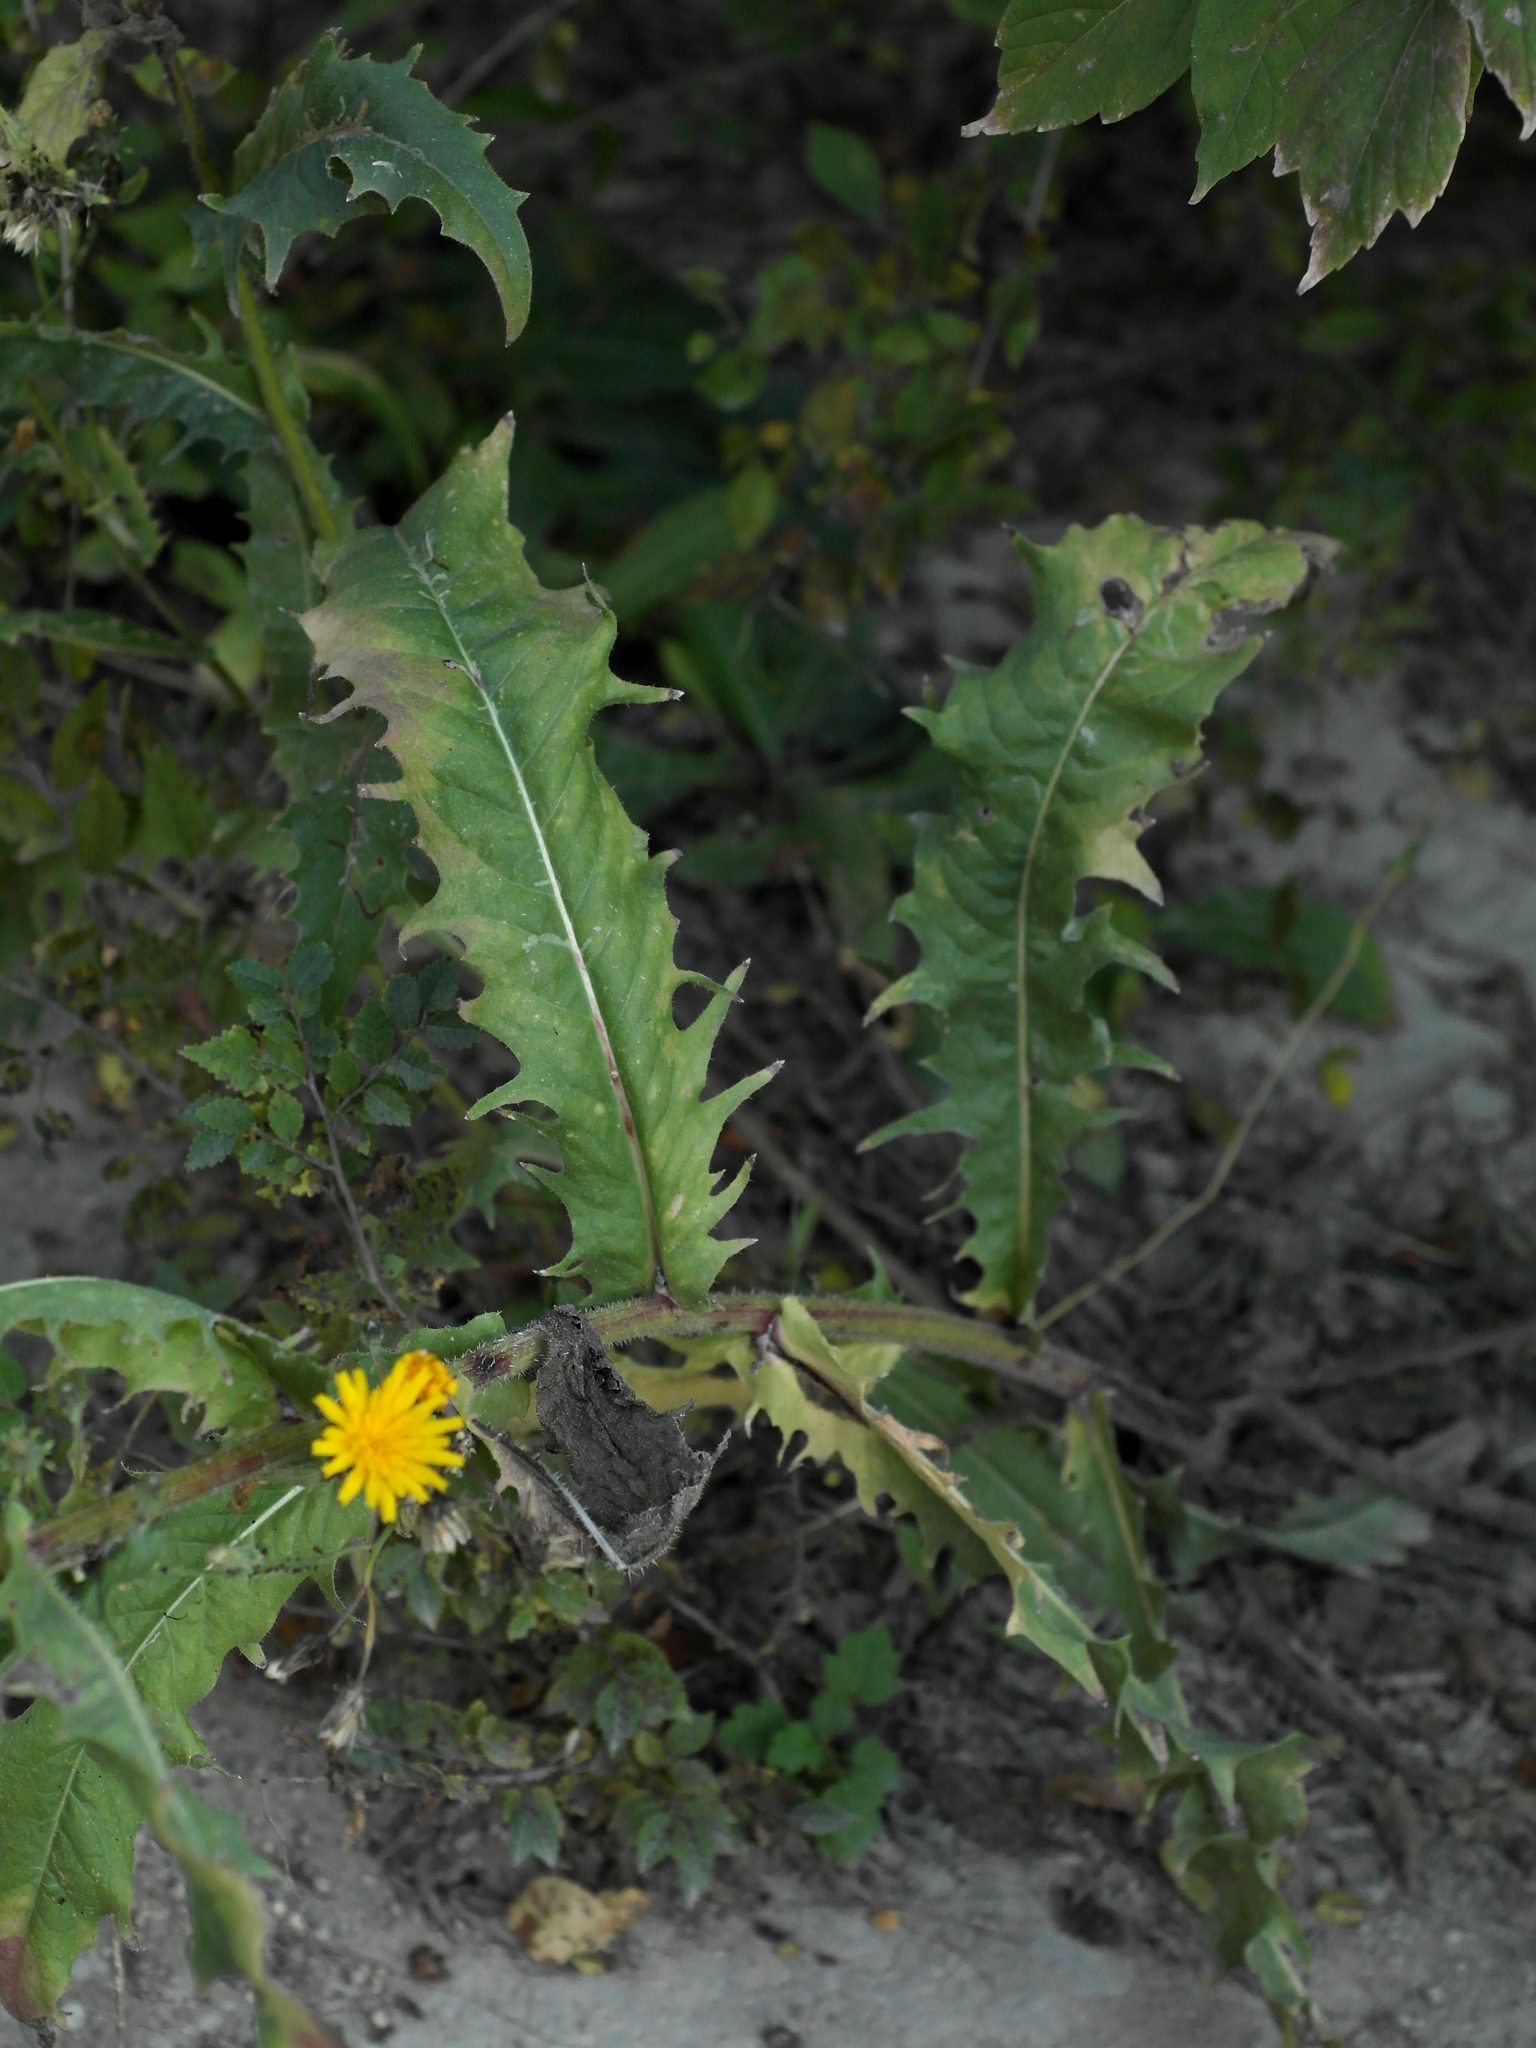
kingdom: Plantae
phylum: Tracheophyta
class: Magnoliopsida
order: Asterales
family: Asteraceae
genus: Picris
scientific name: Picris hieracioides
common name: Hawkweed oxtongue
